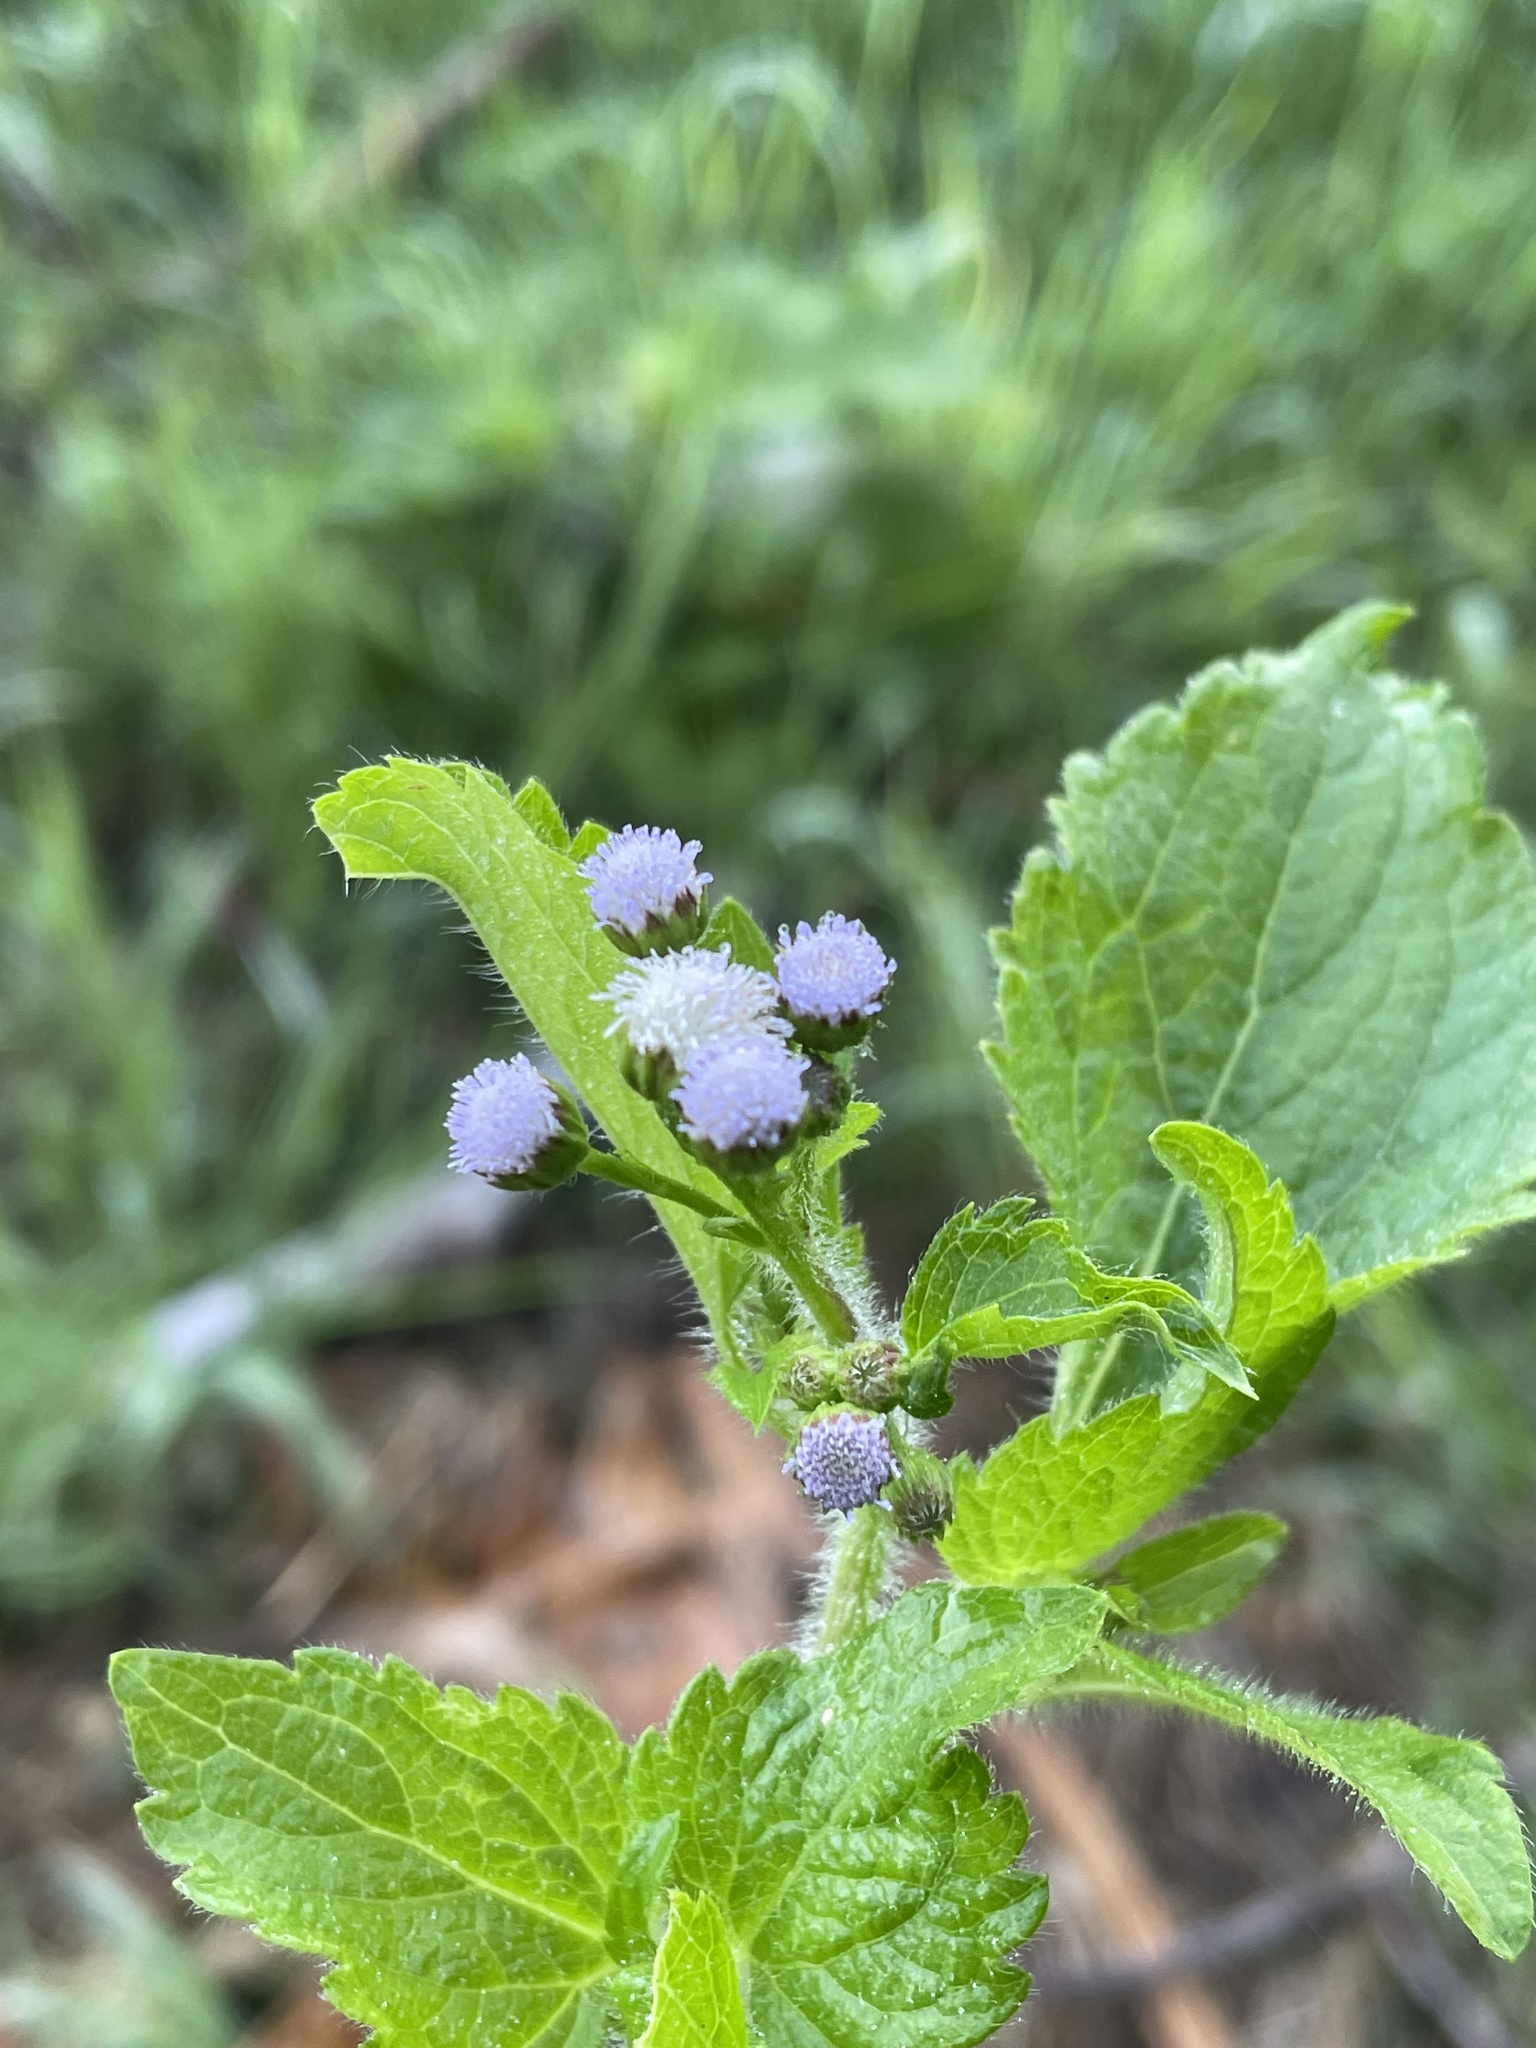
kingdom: Plantae
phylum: Tracheophyta
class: Magnoliopsida
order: Asterales
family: Asteraceae
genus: Ageratum
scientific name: Ageratum conyzoides
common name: Tropical whiteweed
